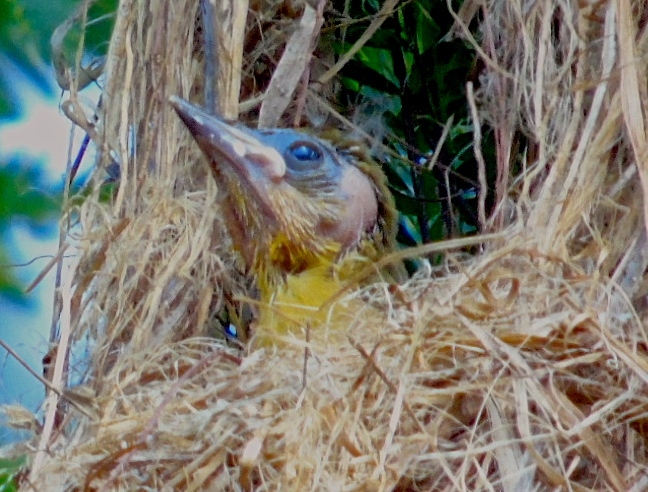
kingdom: Animalia
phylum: Chordata
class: Aves
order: Passeriformes
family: Icteridae
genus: Icterus
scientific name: Icterus
